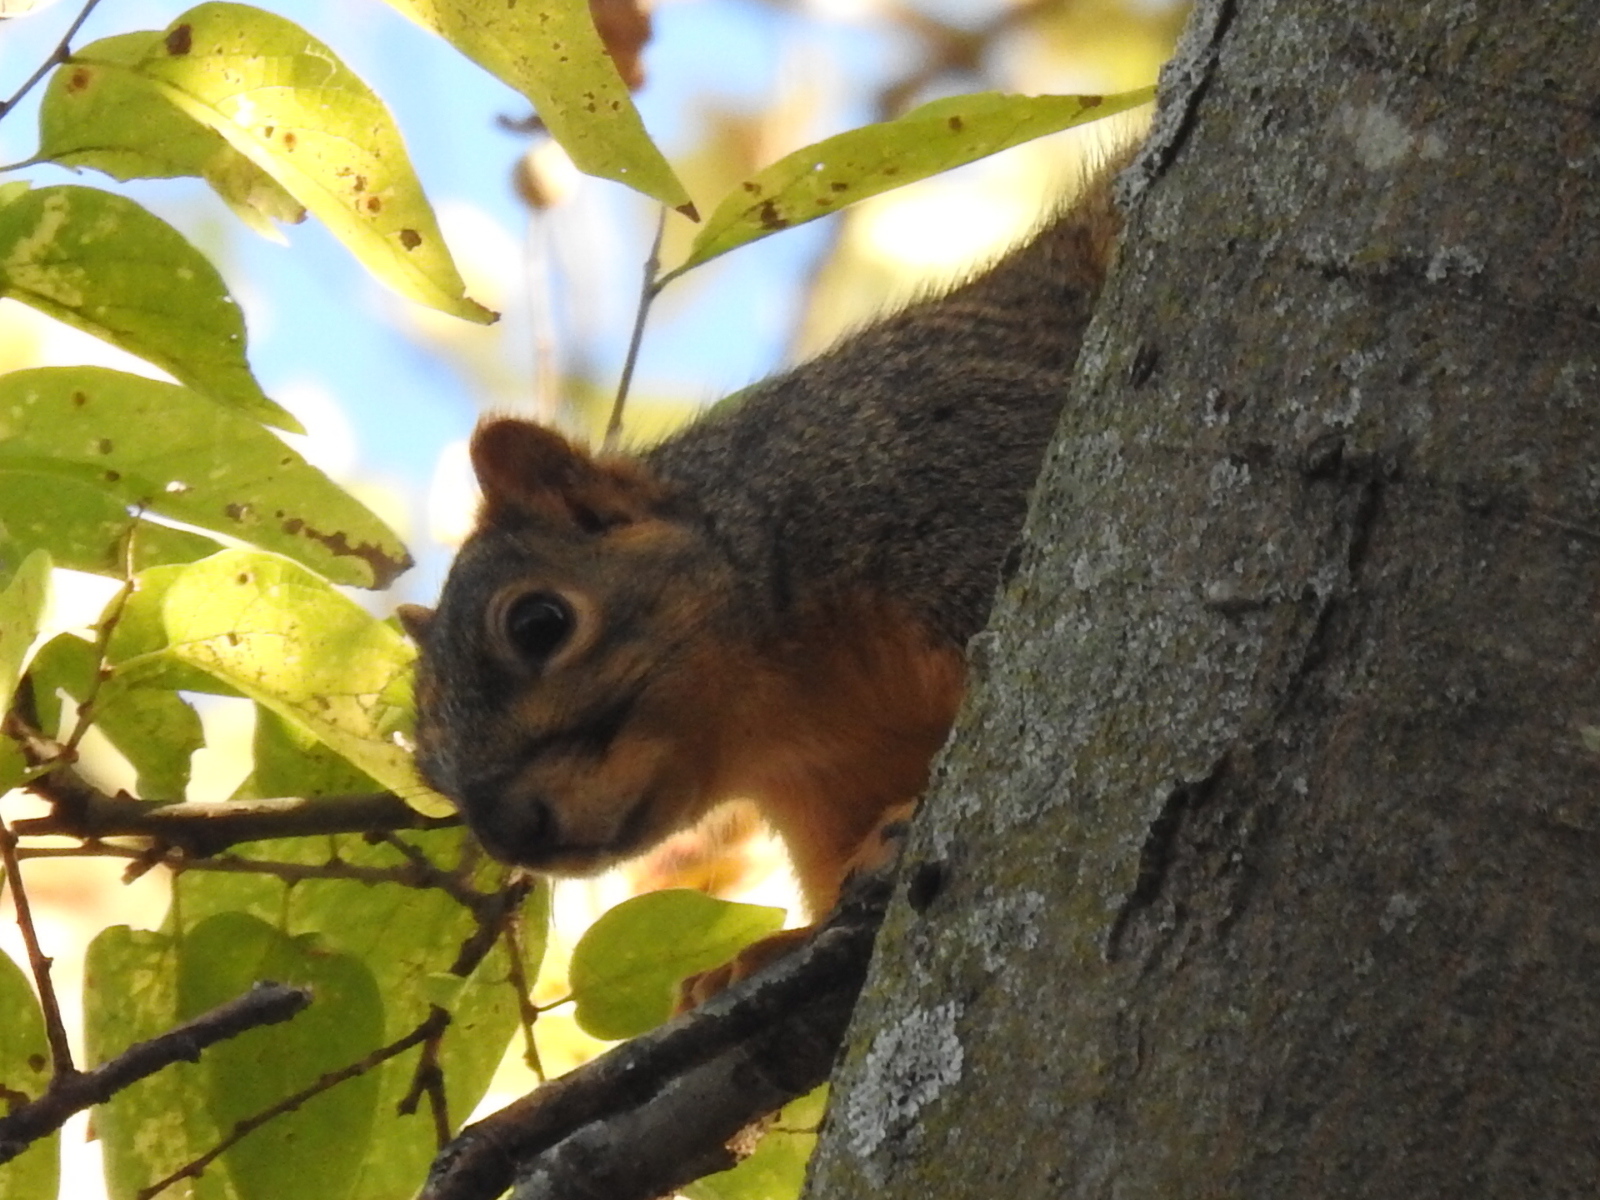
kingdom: Animalia
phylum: Chordata
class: Mammalia
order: Rodentia
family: Sciuridae
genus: Sciurus
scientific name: Sciurus niger
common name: Fox squirrel
